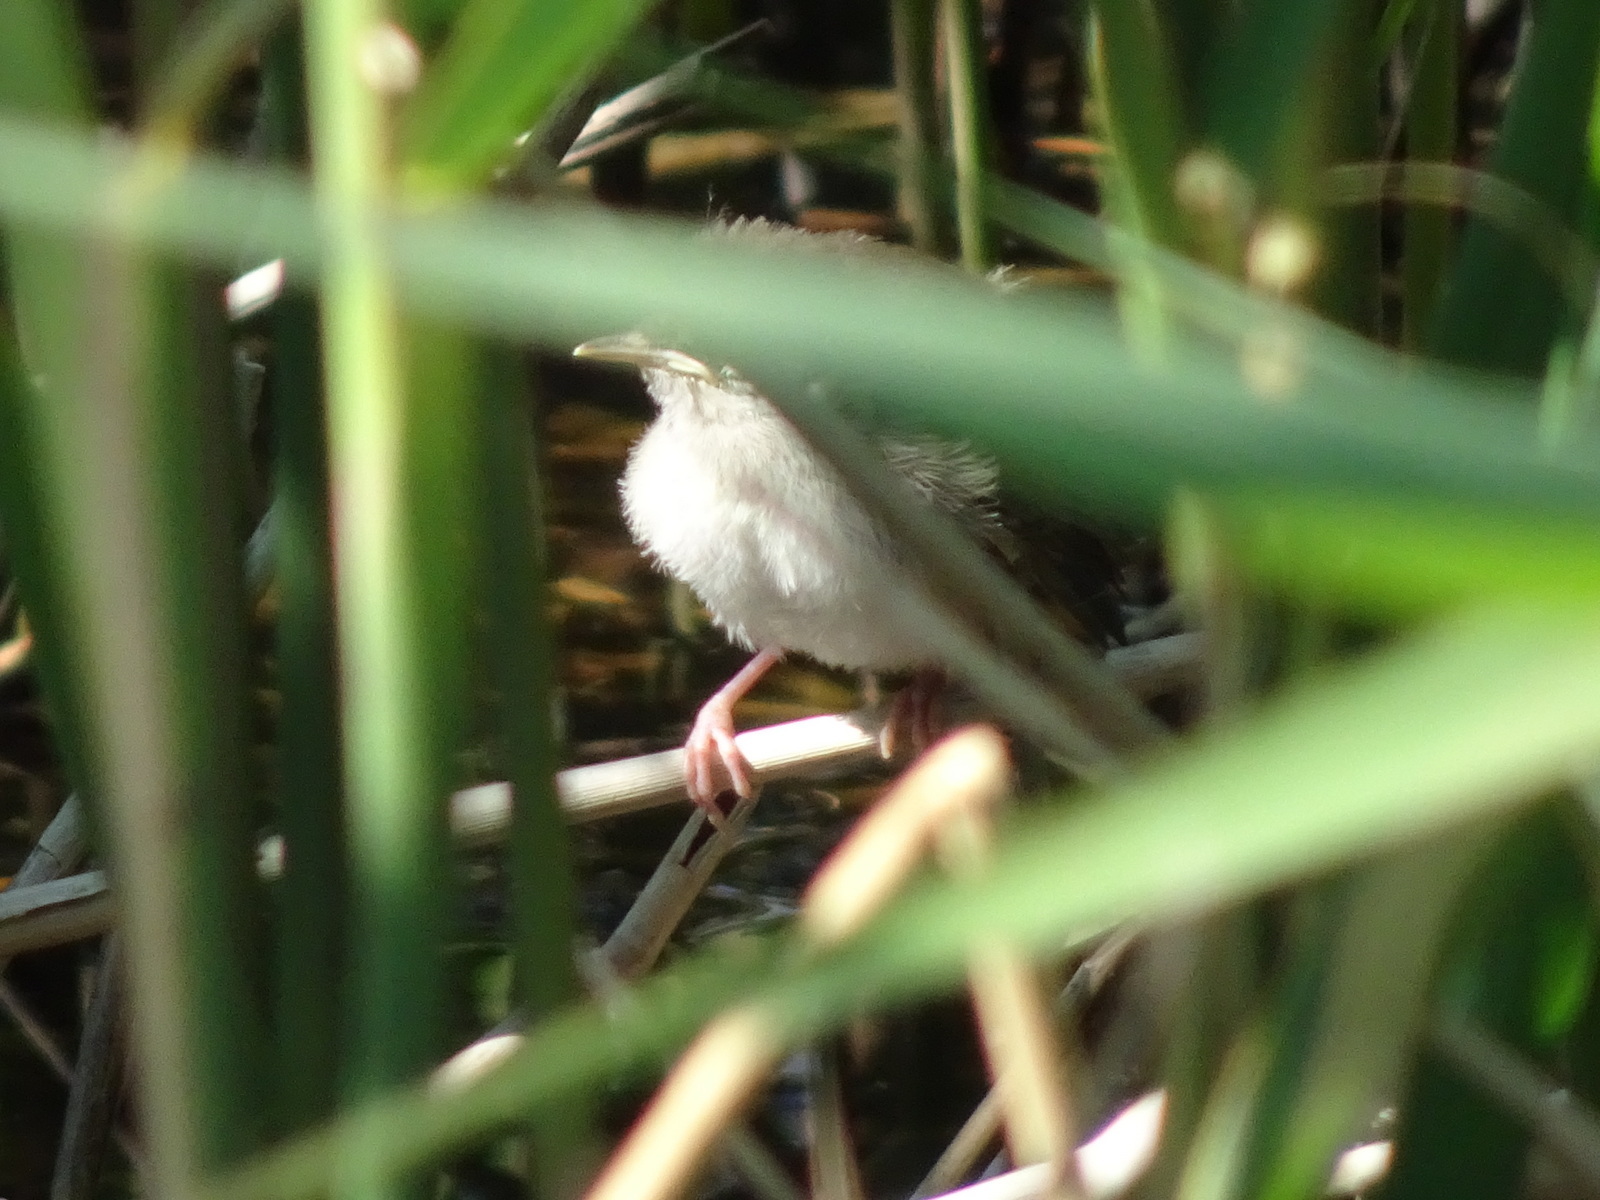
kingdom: Animalia
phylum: Chordata
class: Aves
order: Passeriformes
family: Cettiidae
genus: Cettia
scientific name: Cettia cetti
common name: Cetti's warbler
